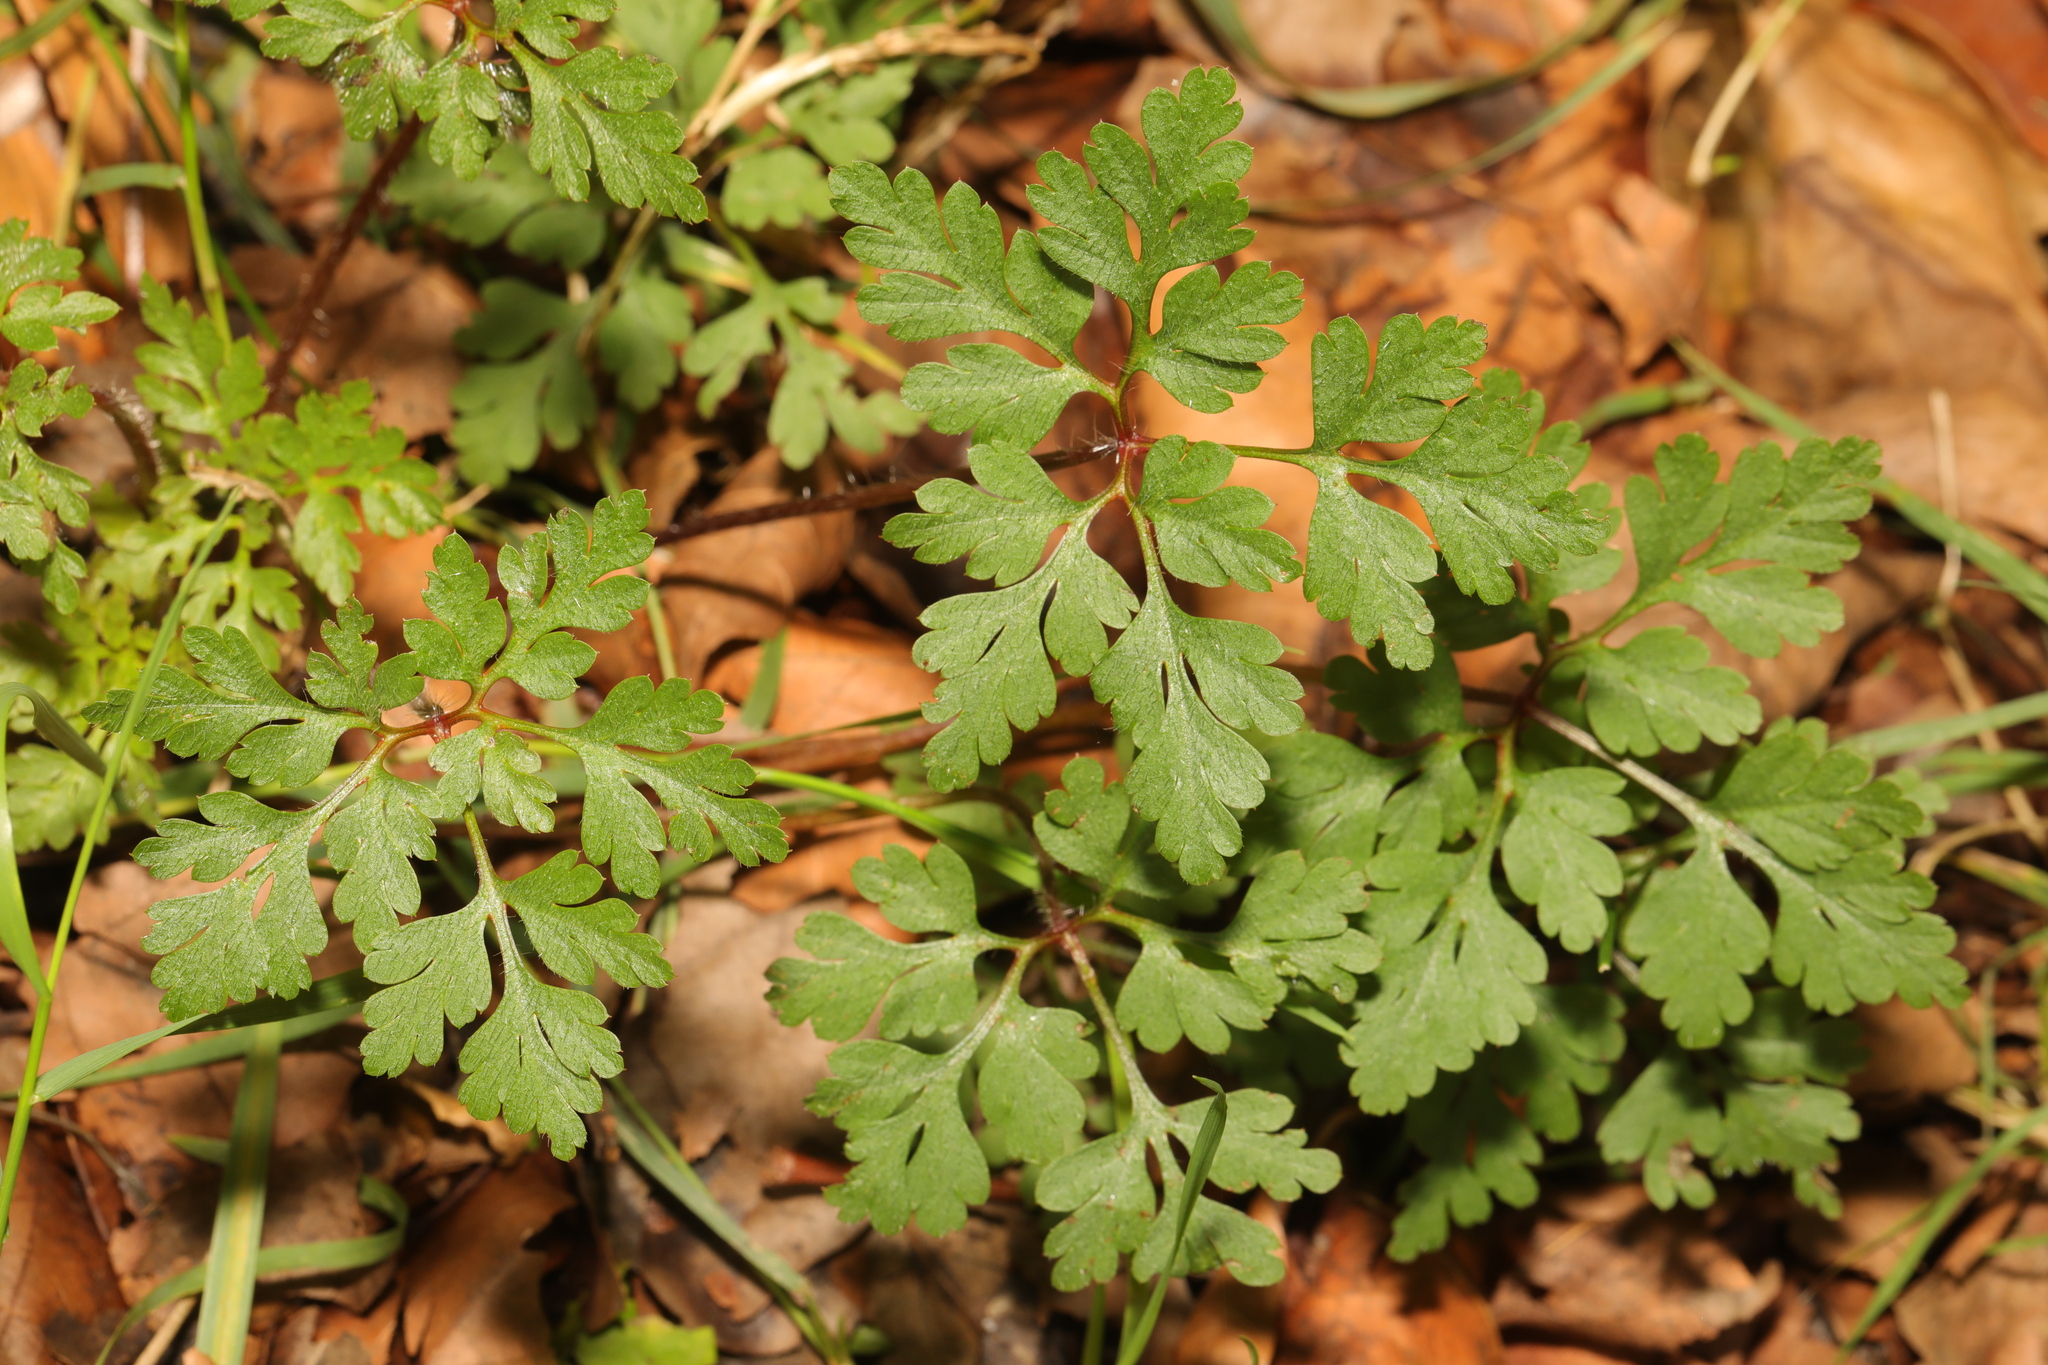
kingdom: Plantae
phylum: Tracheophyta
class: Magnoliopsida
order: Geraniales
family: Geraniaceae
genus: Geranium
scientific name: Geranium robertianum
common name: Herb-robert
